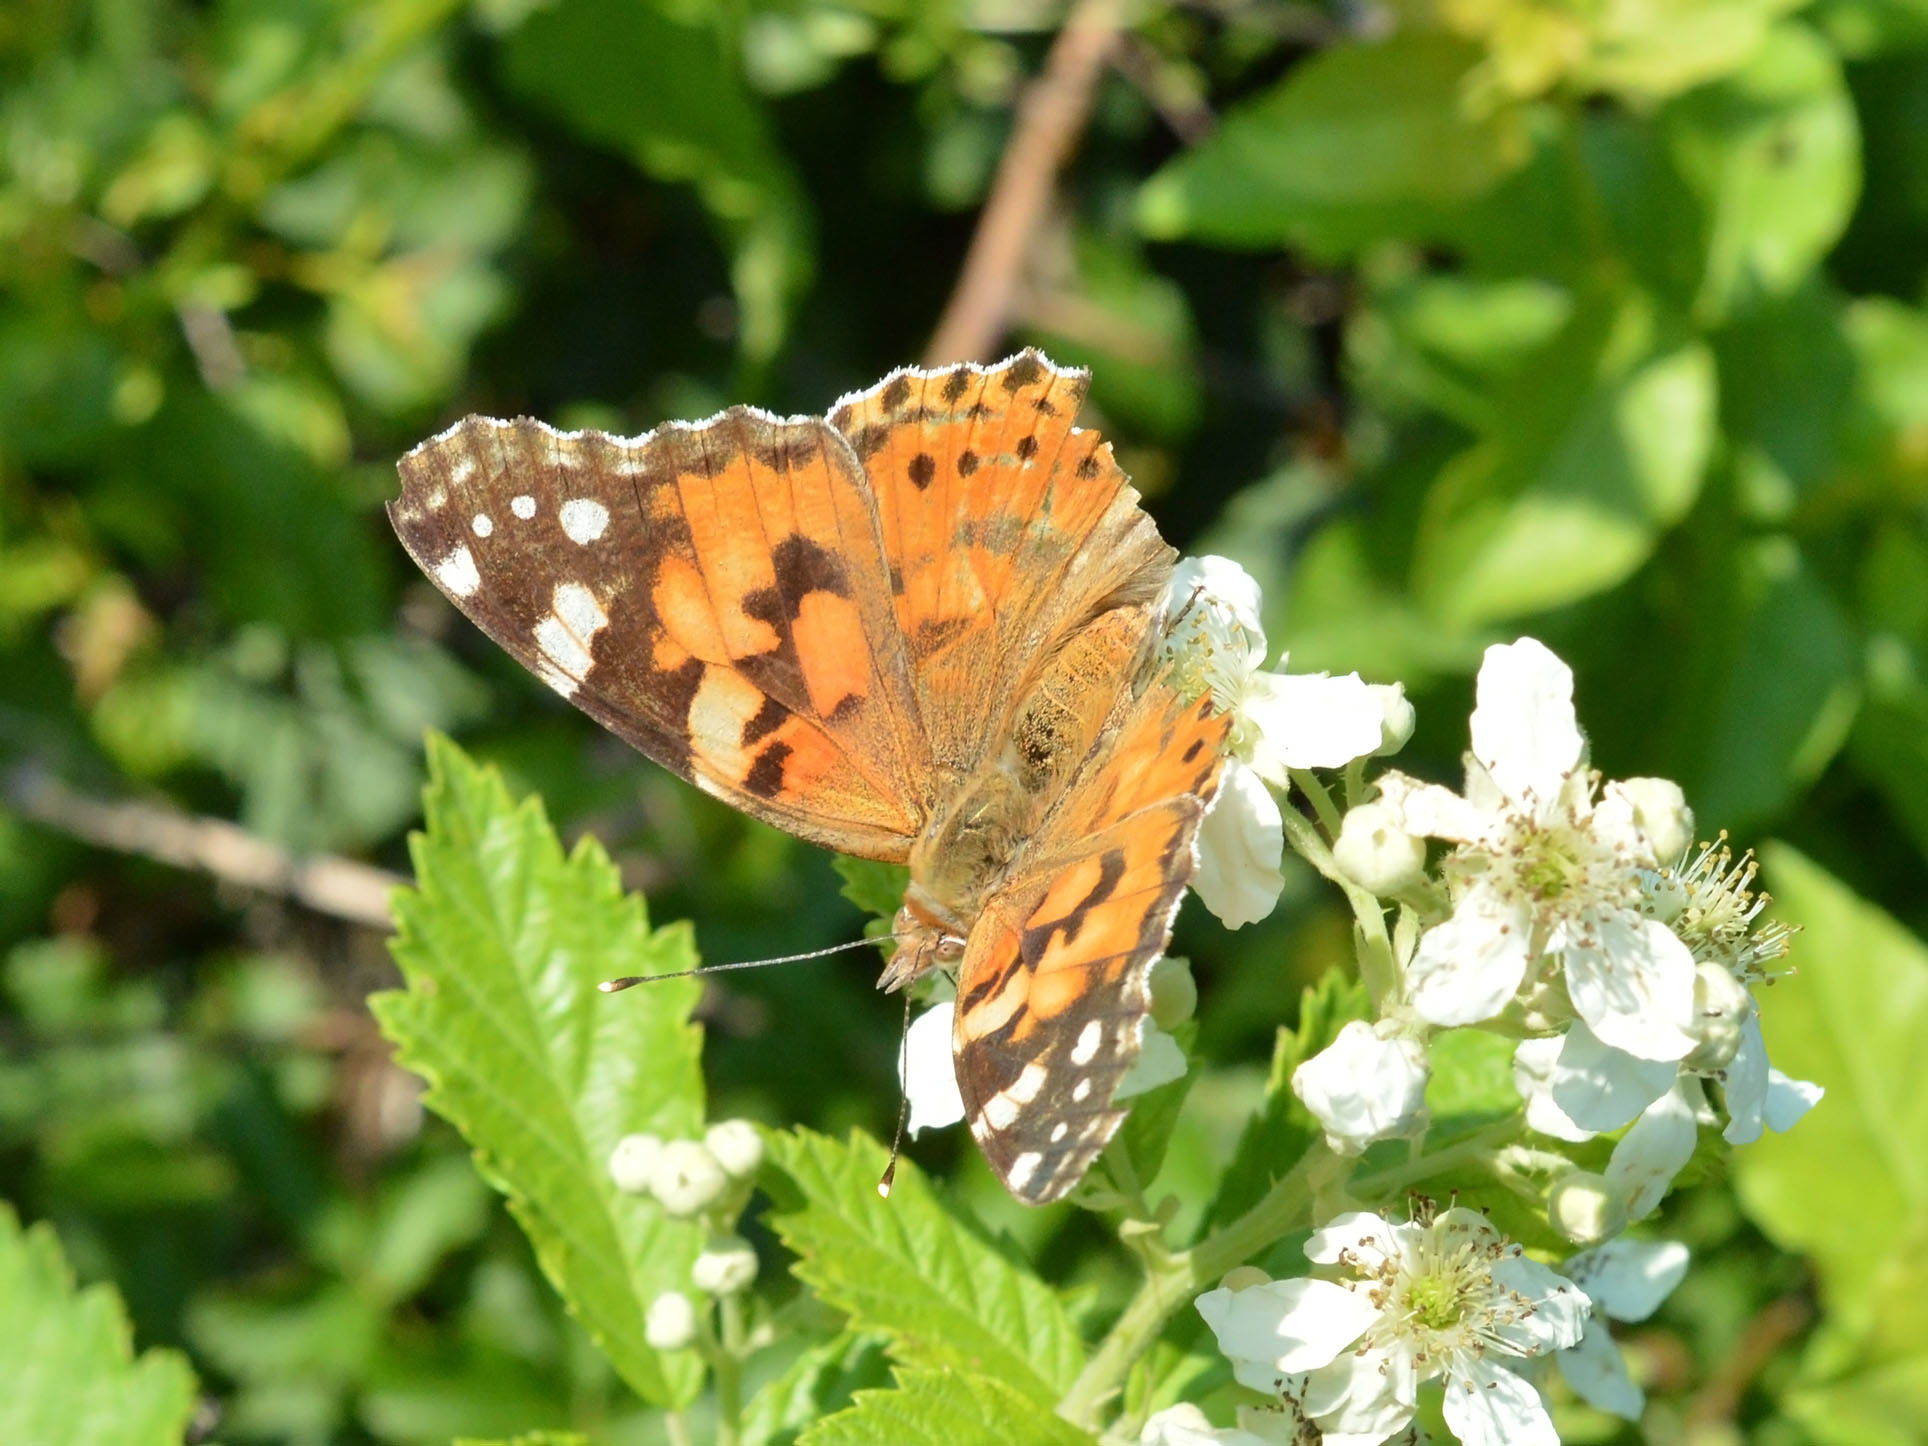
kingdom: Animalia
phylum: Arthropoda
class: Insecta
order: Lepidoptera
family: Nymphalidae
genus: Vanessa
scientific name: Vanessa cardui
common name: Painted lady
